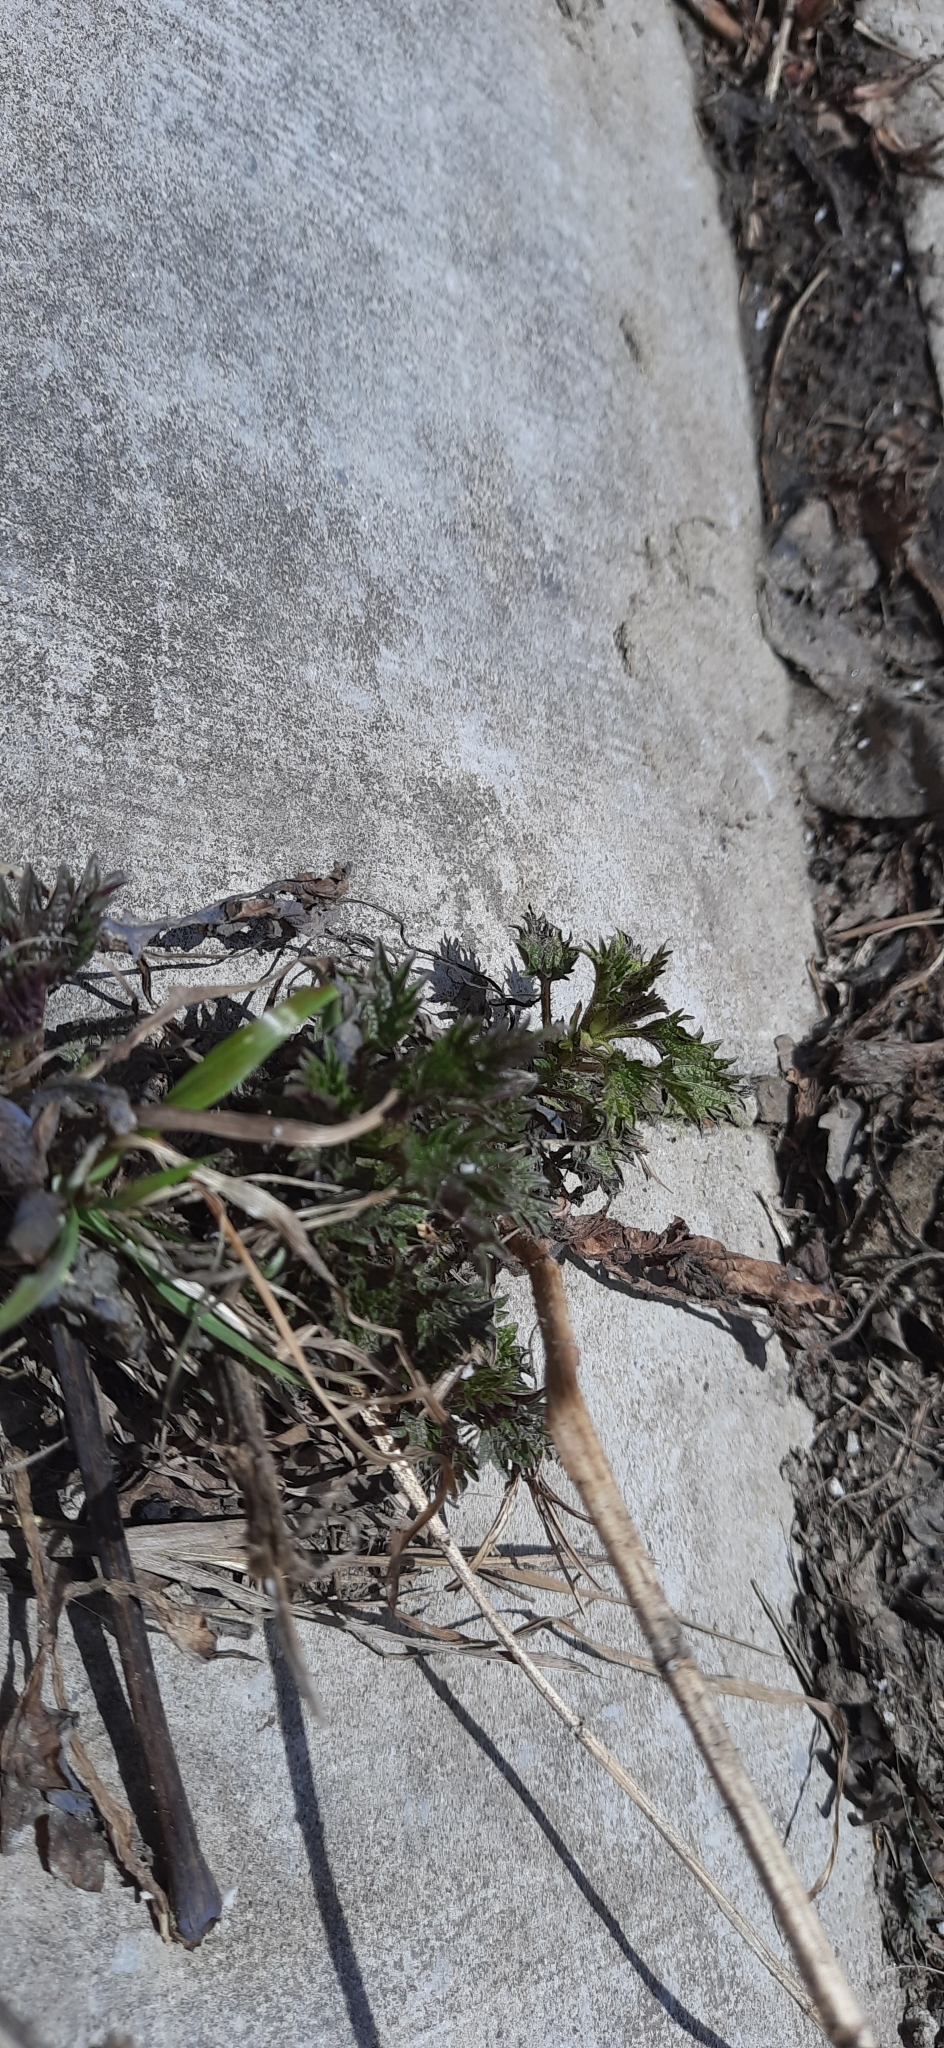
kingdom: Plantae
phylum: Tracheophyta
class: Magnoliopsida
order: Rosales
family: Urticaceae
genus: Urtica
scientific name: Urtica dioica
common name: Common nettle
